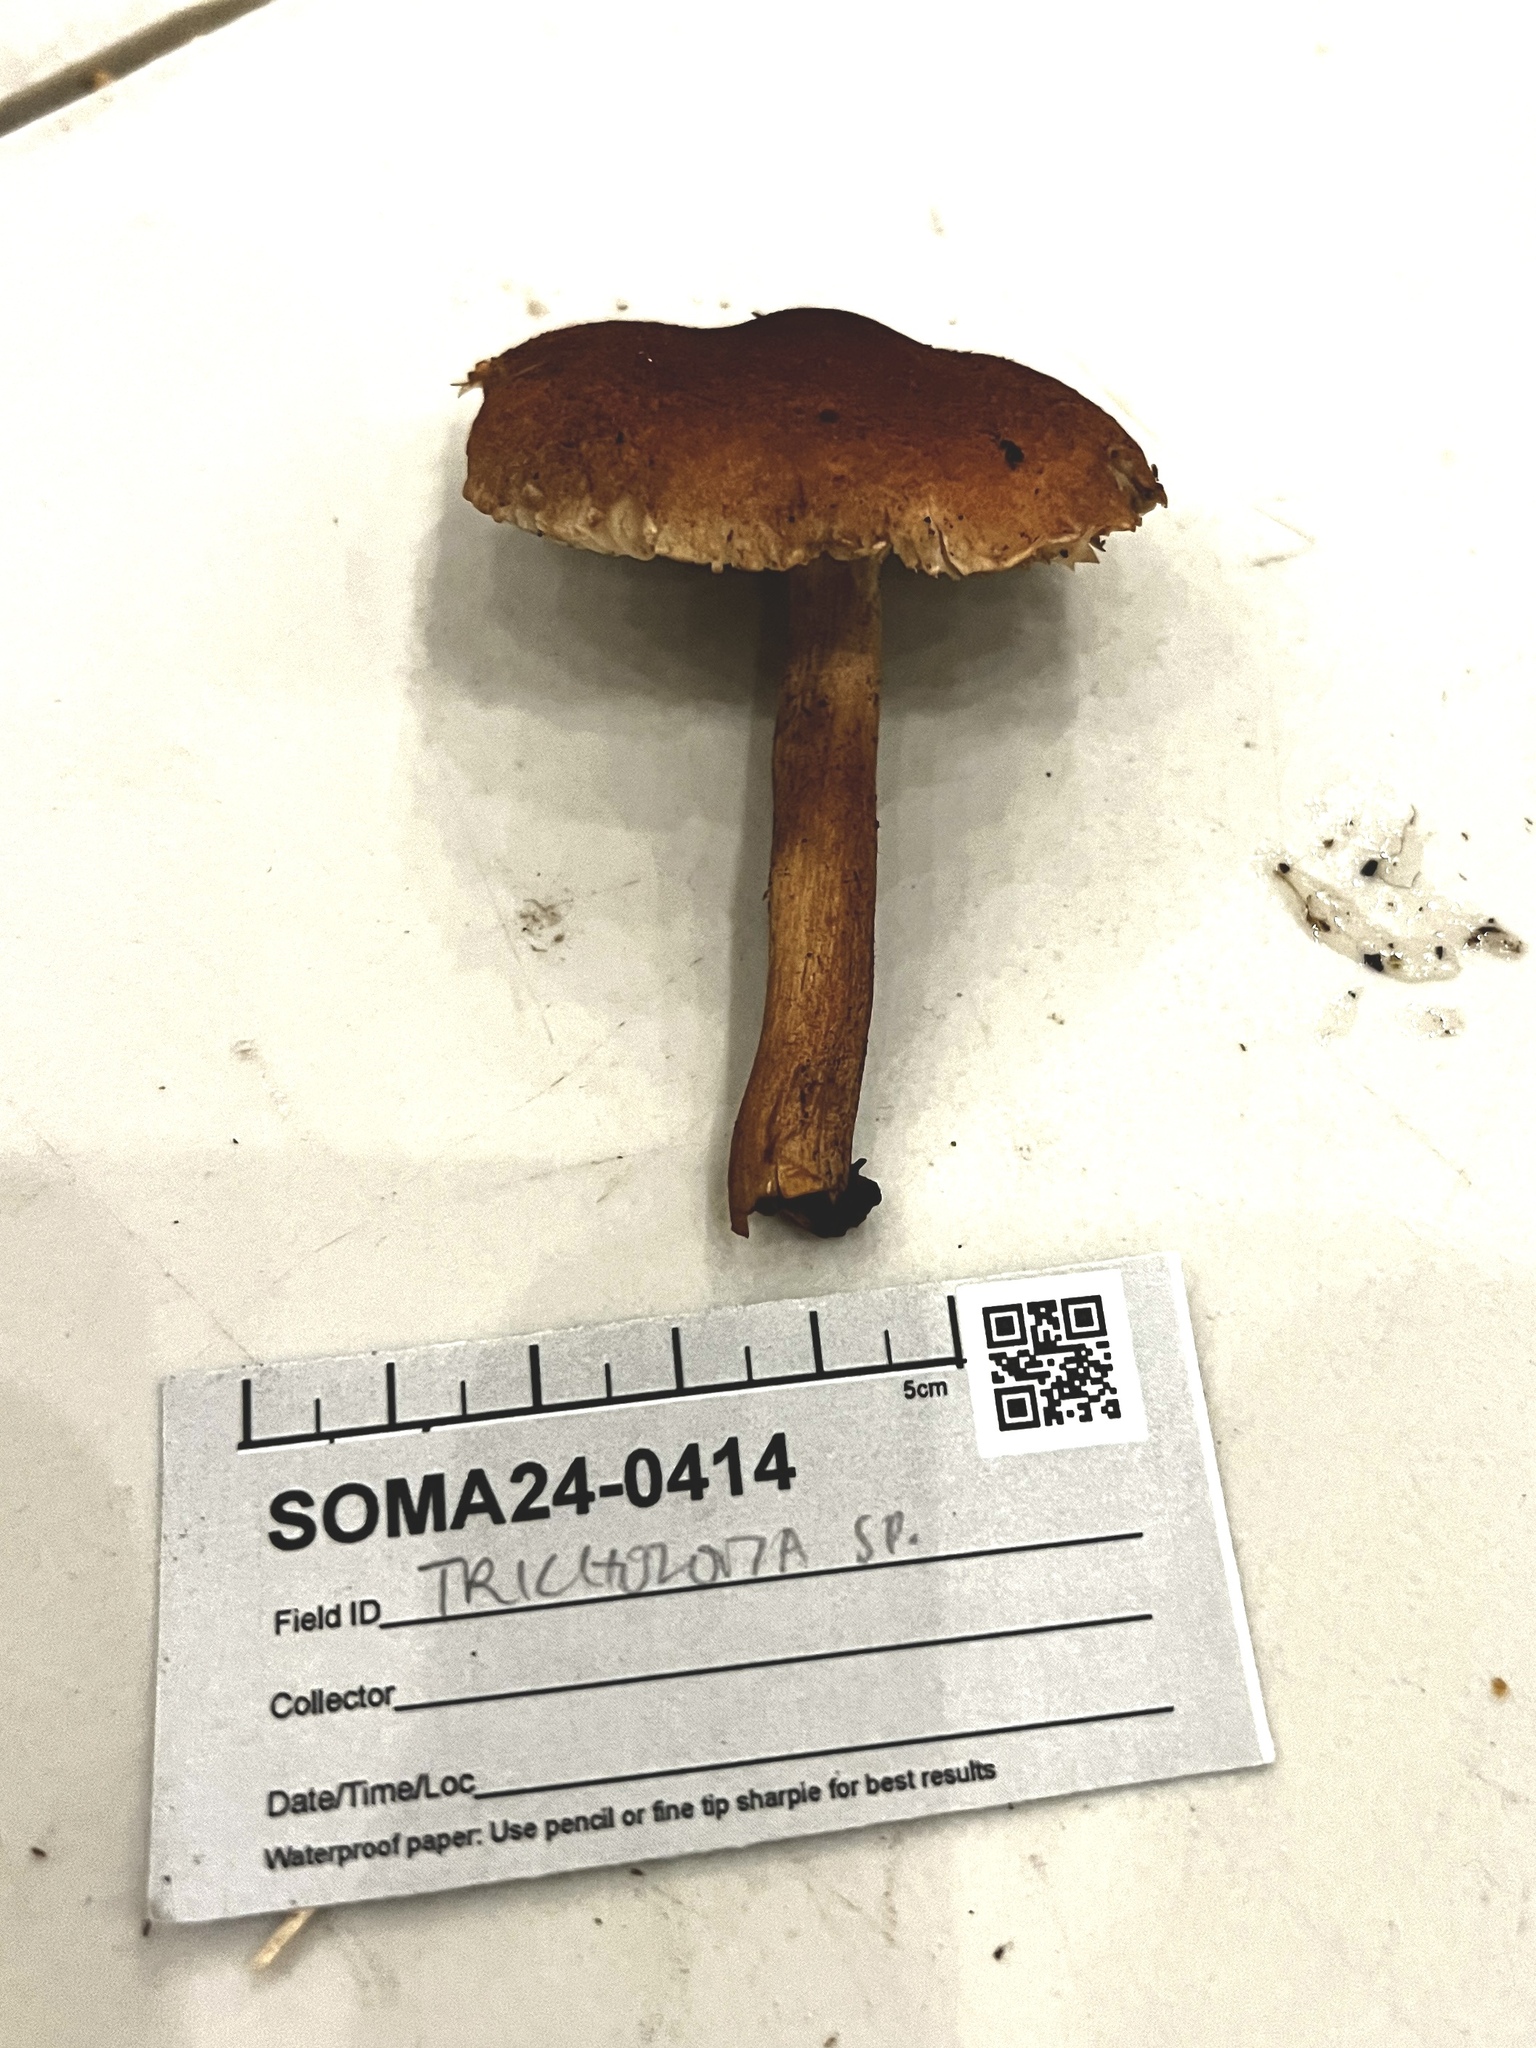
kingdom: Fungi
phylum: Basidiomycota
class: Agaricomycetes
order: Agaricales
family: Tricholomataceae
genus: Tricholoma
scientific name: Tricholoma psammopus
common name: Larch knight
